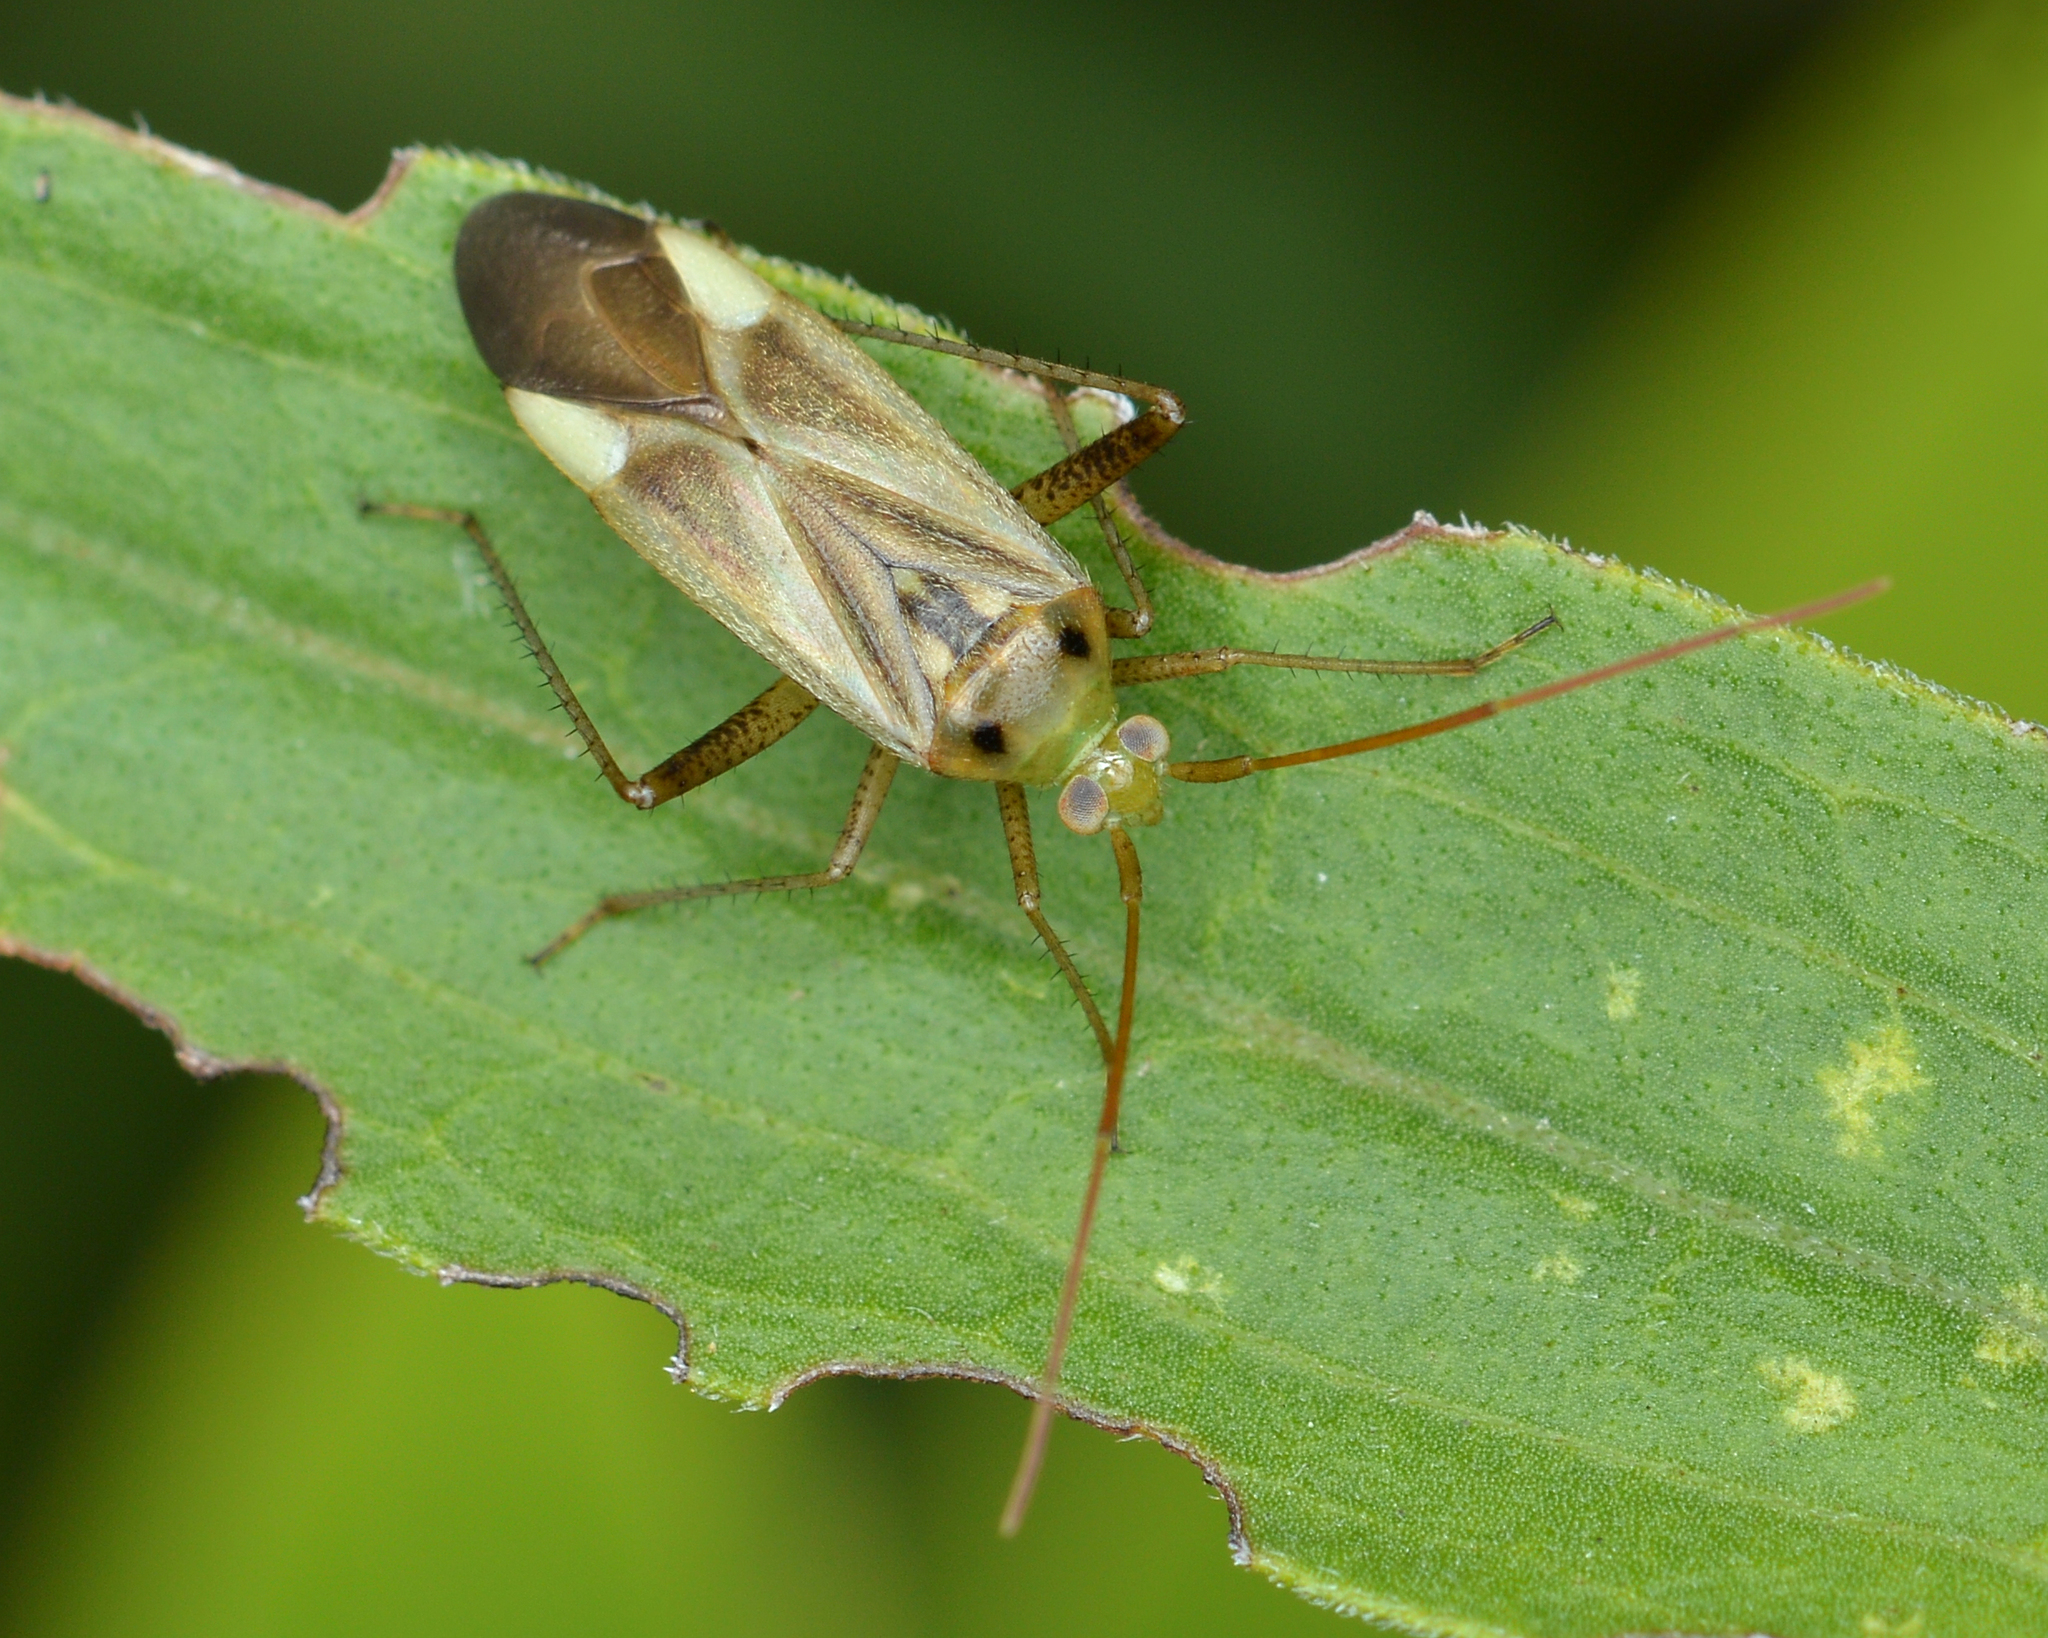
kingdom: Animalia
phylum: Arthropoda
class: Insecta
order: Hemiptera
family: Miridae
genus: Adelphocoris
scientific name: Adelphocoris lineolatus
